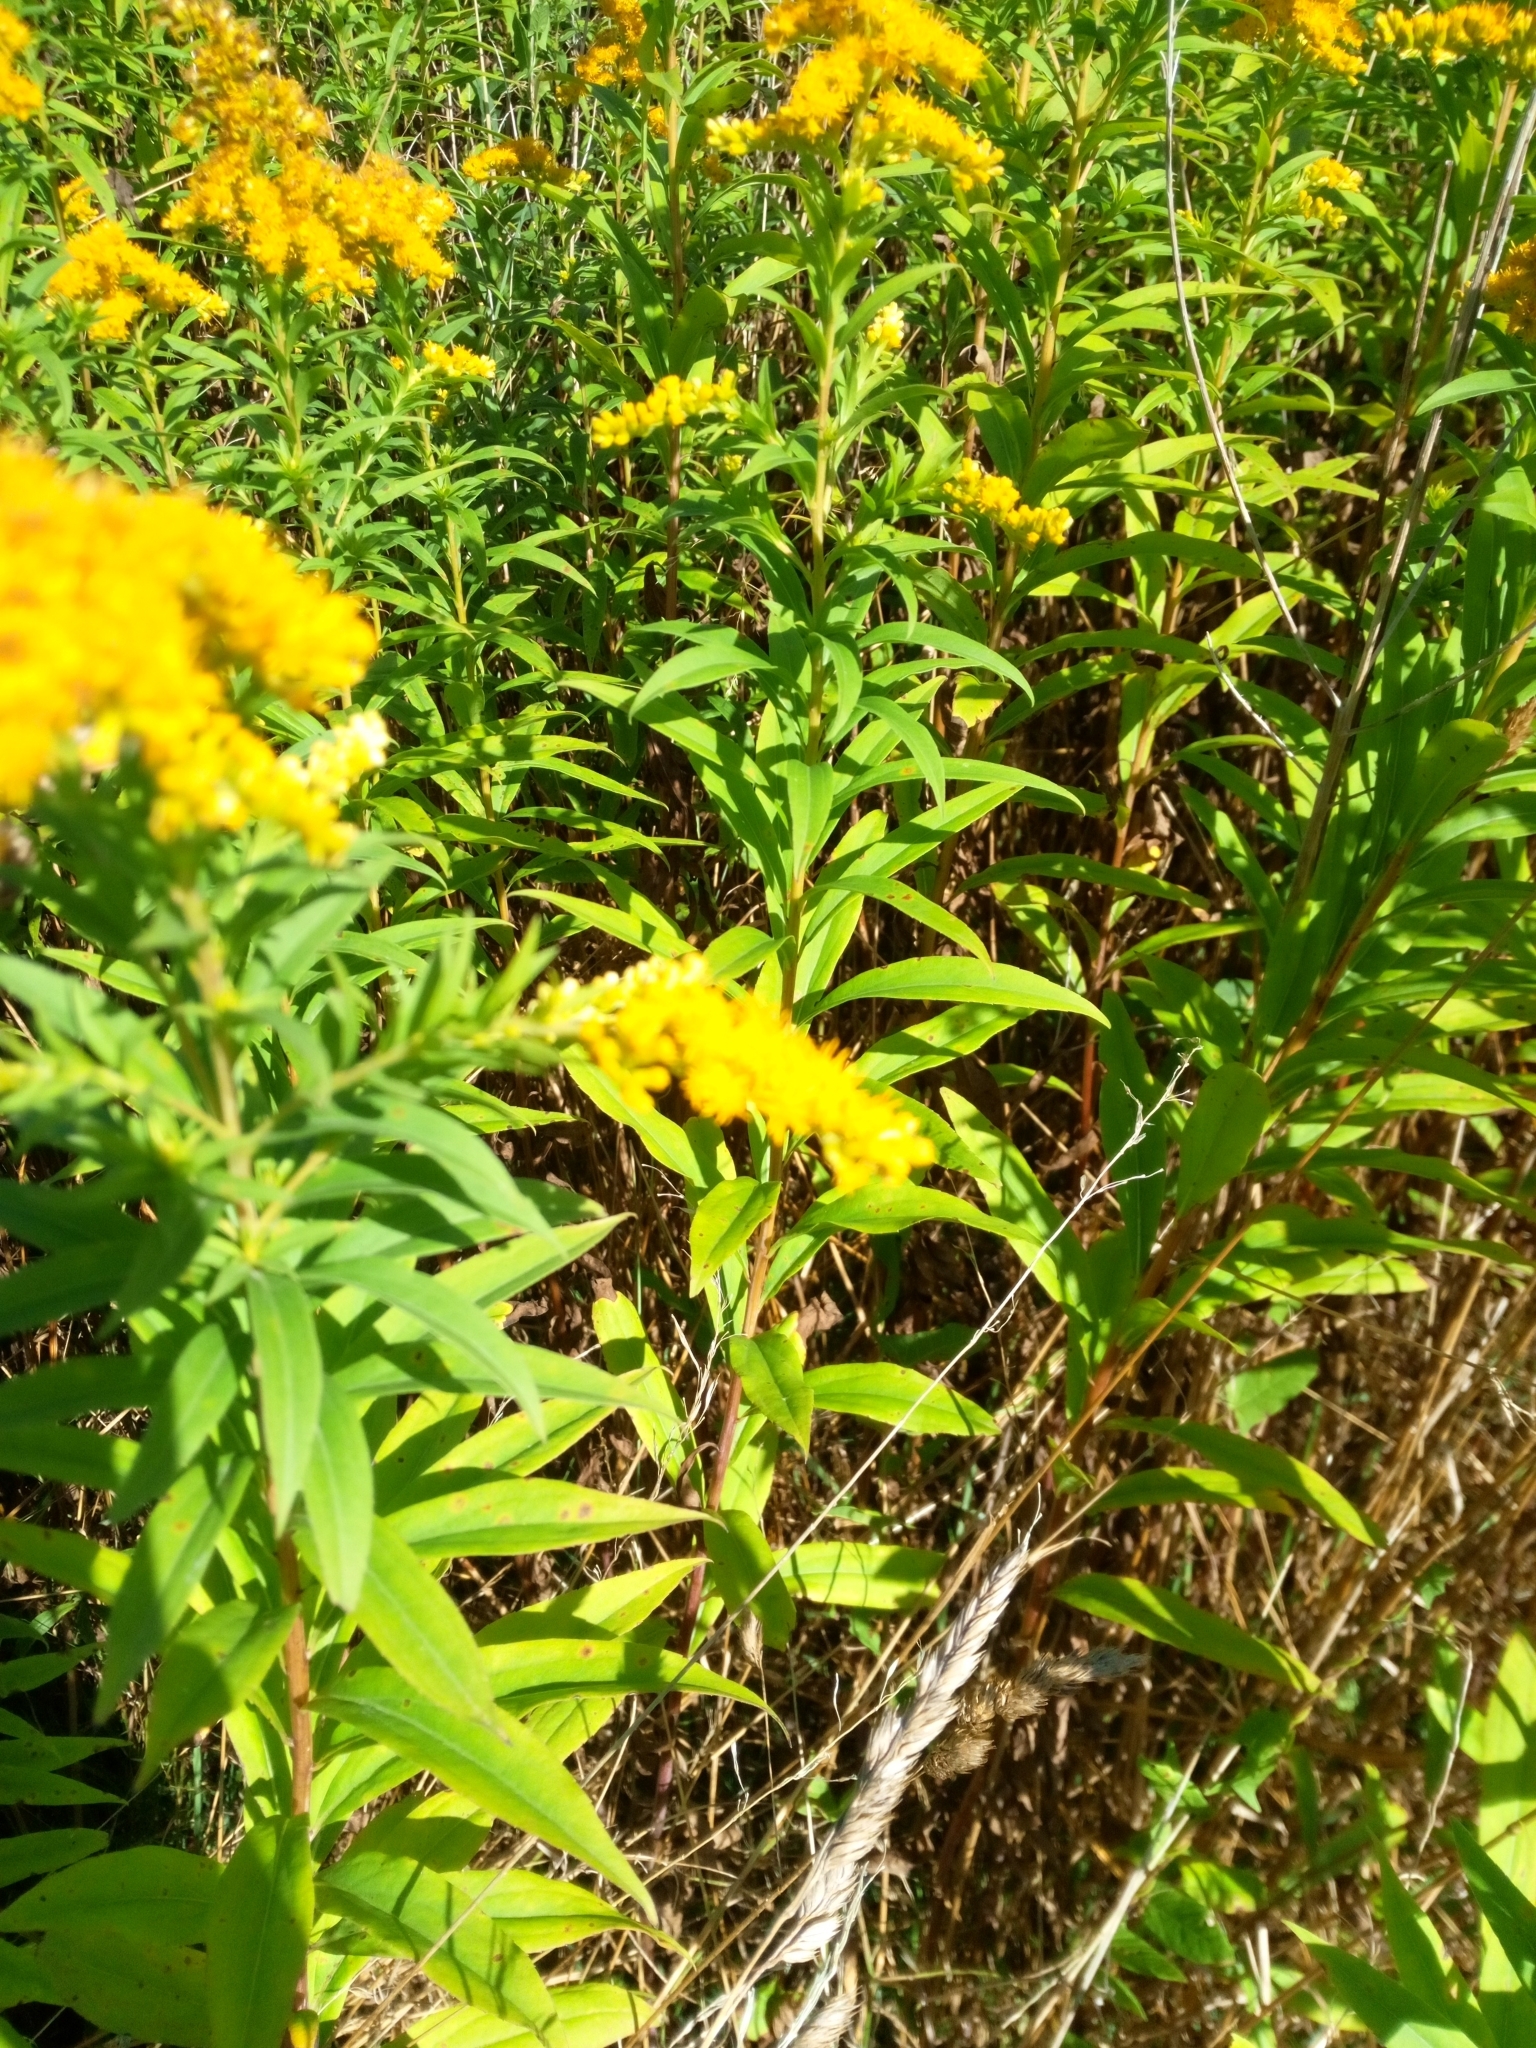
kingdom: Plantae
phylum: Tracheophyta
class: Magnoliopsida
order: Asterales
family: Asteraceae
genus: Solidago
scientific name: Solidago gigantea
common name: Giant goldenrod
